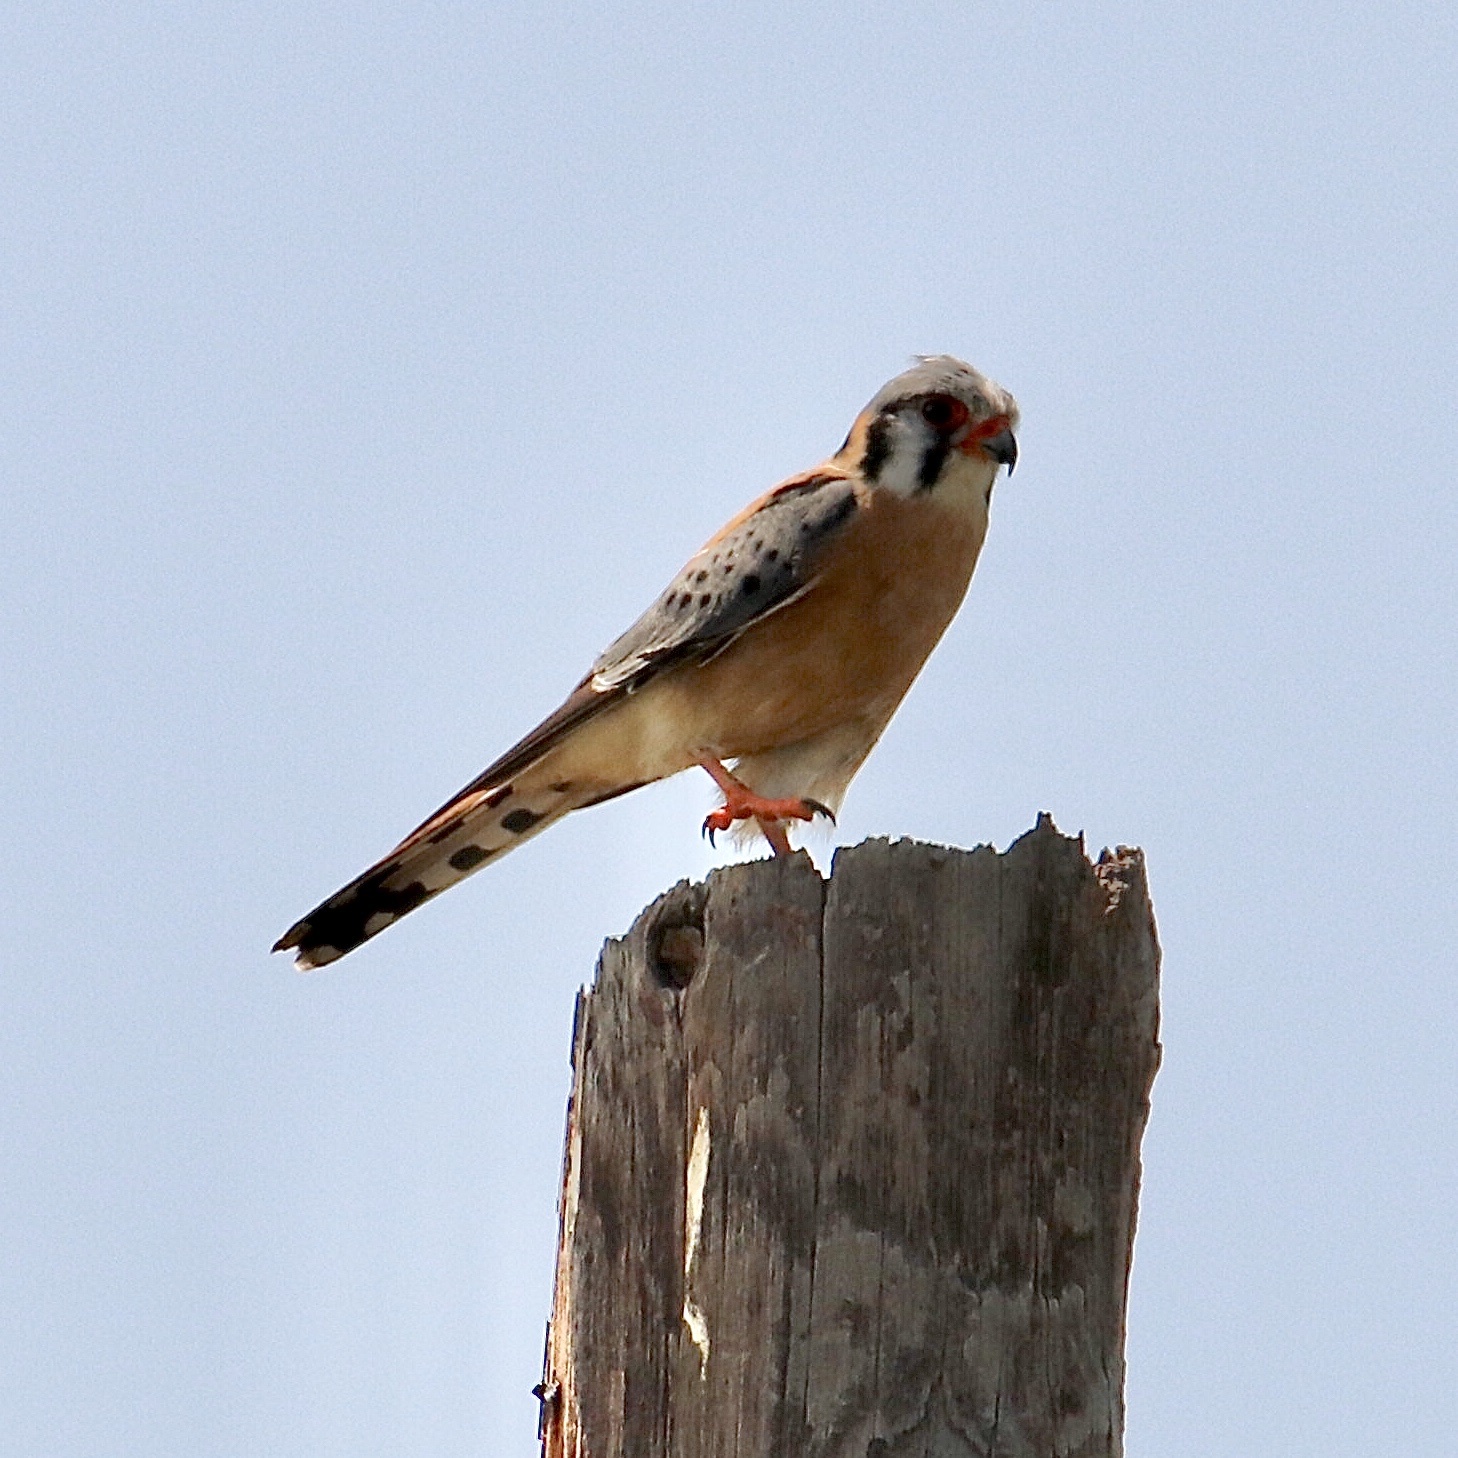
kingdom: Animalia
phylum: Chordata
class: Aves
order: Falconiformes
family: Falconidae
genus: Falco
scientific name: Falco sparverius
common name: American kestrel
